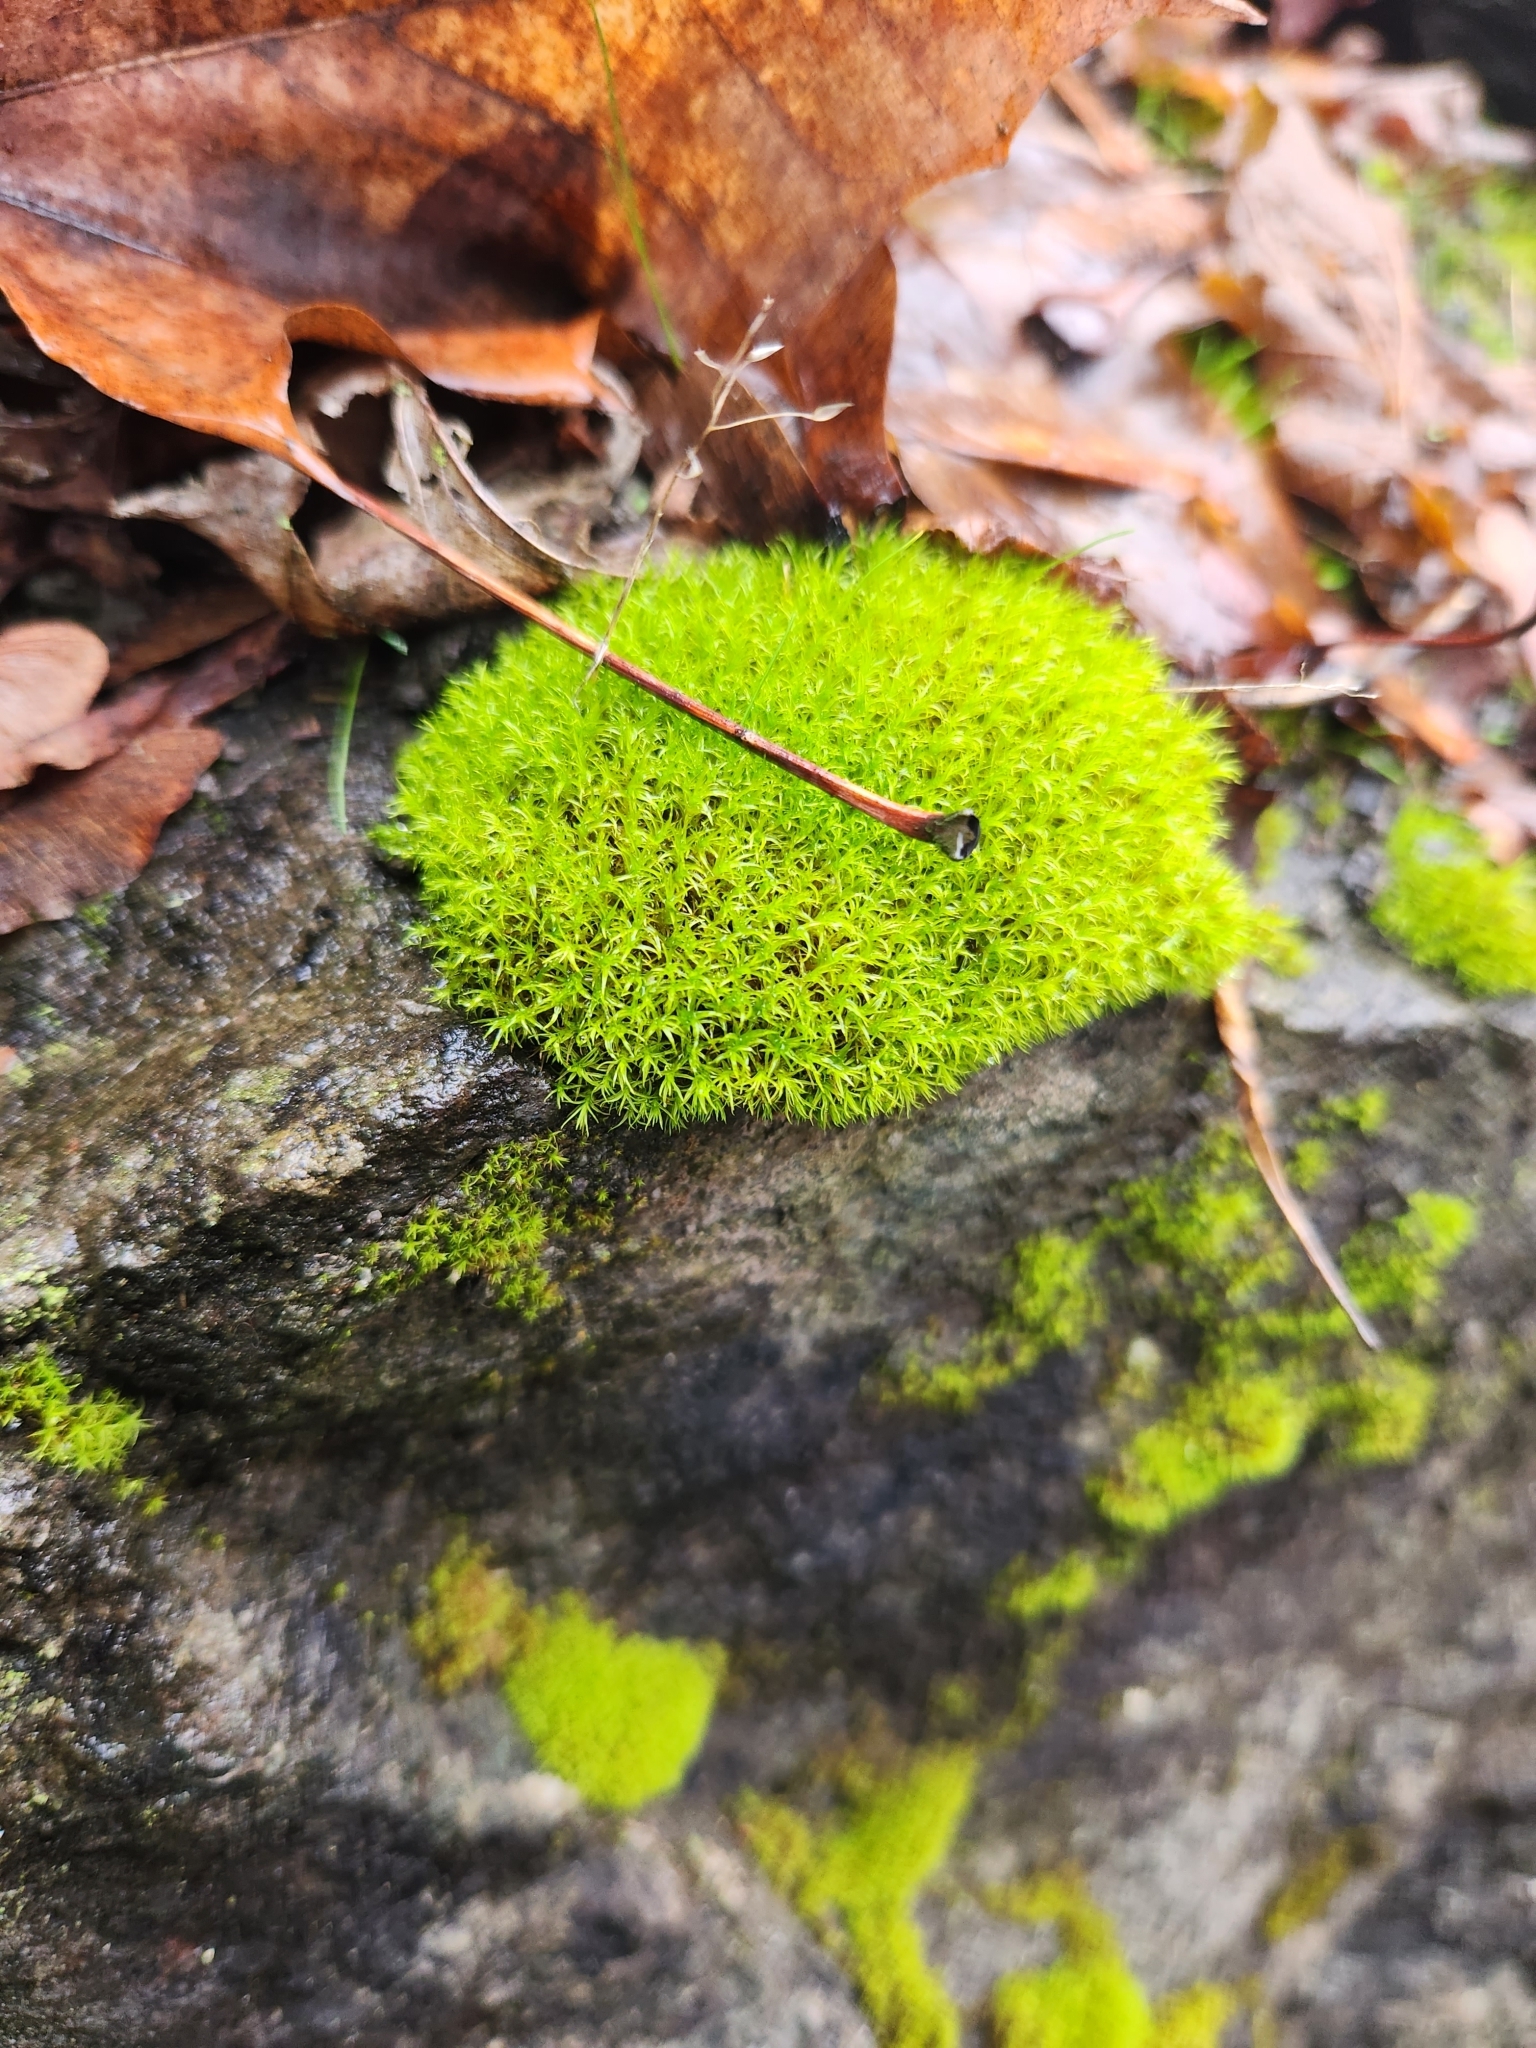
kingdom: Plantae
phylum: Bryophyta
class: Bryopsida
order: Dicranales
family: Rhabdoweisiaceae
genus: Dicranoweisia
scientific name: Dicranoweisia cirrata
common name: Common pincushion
